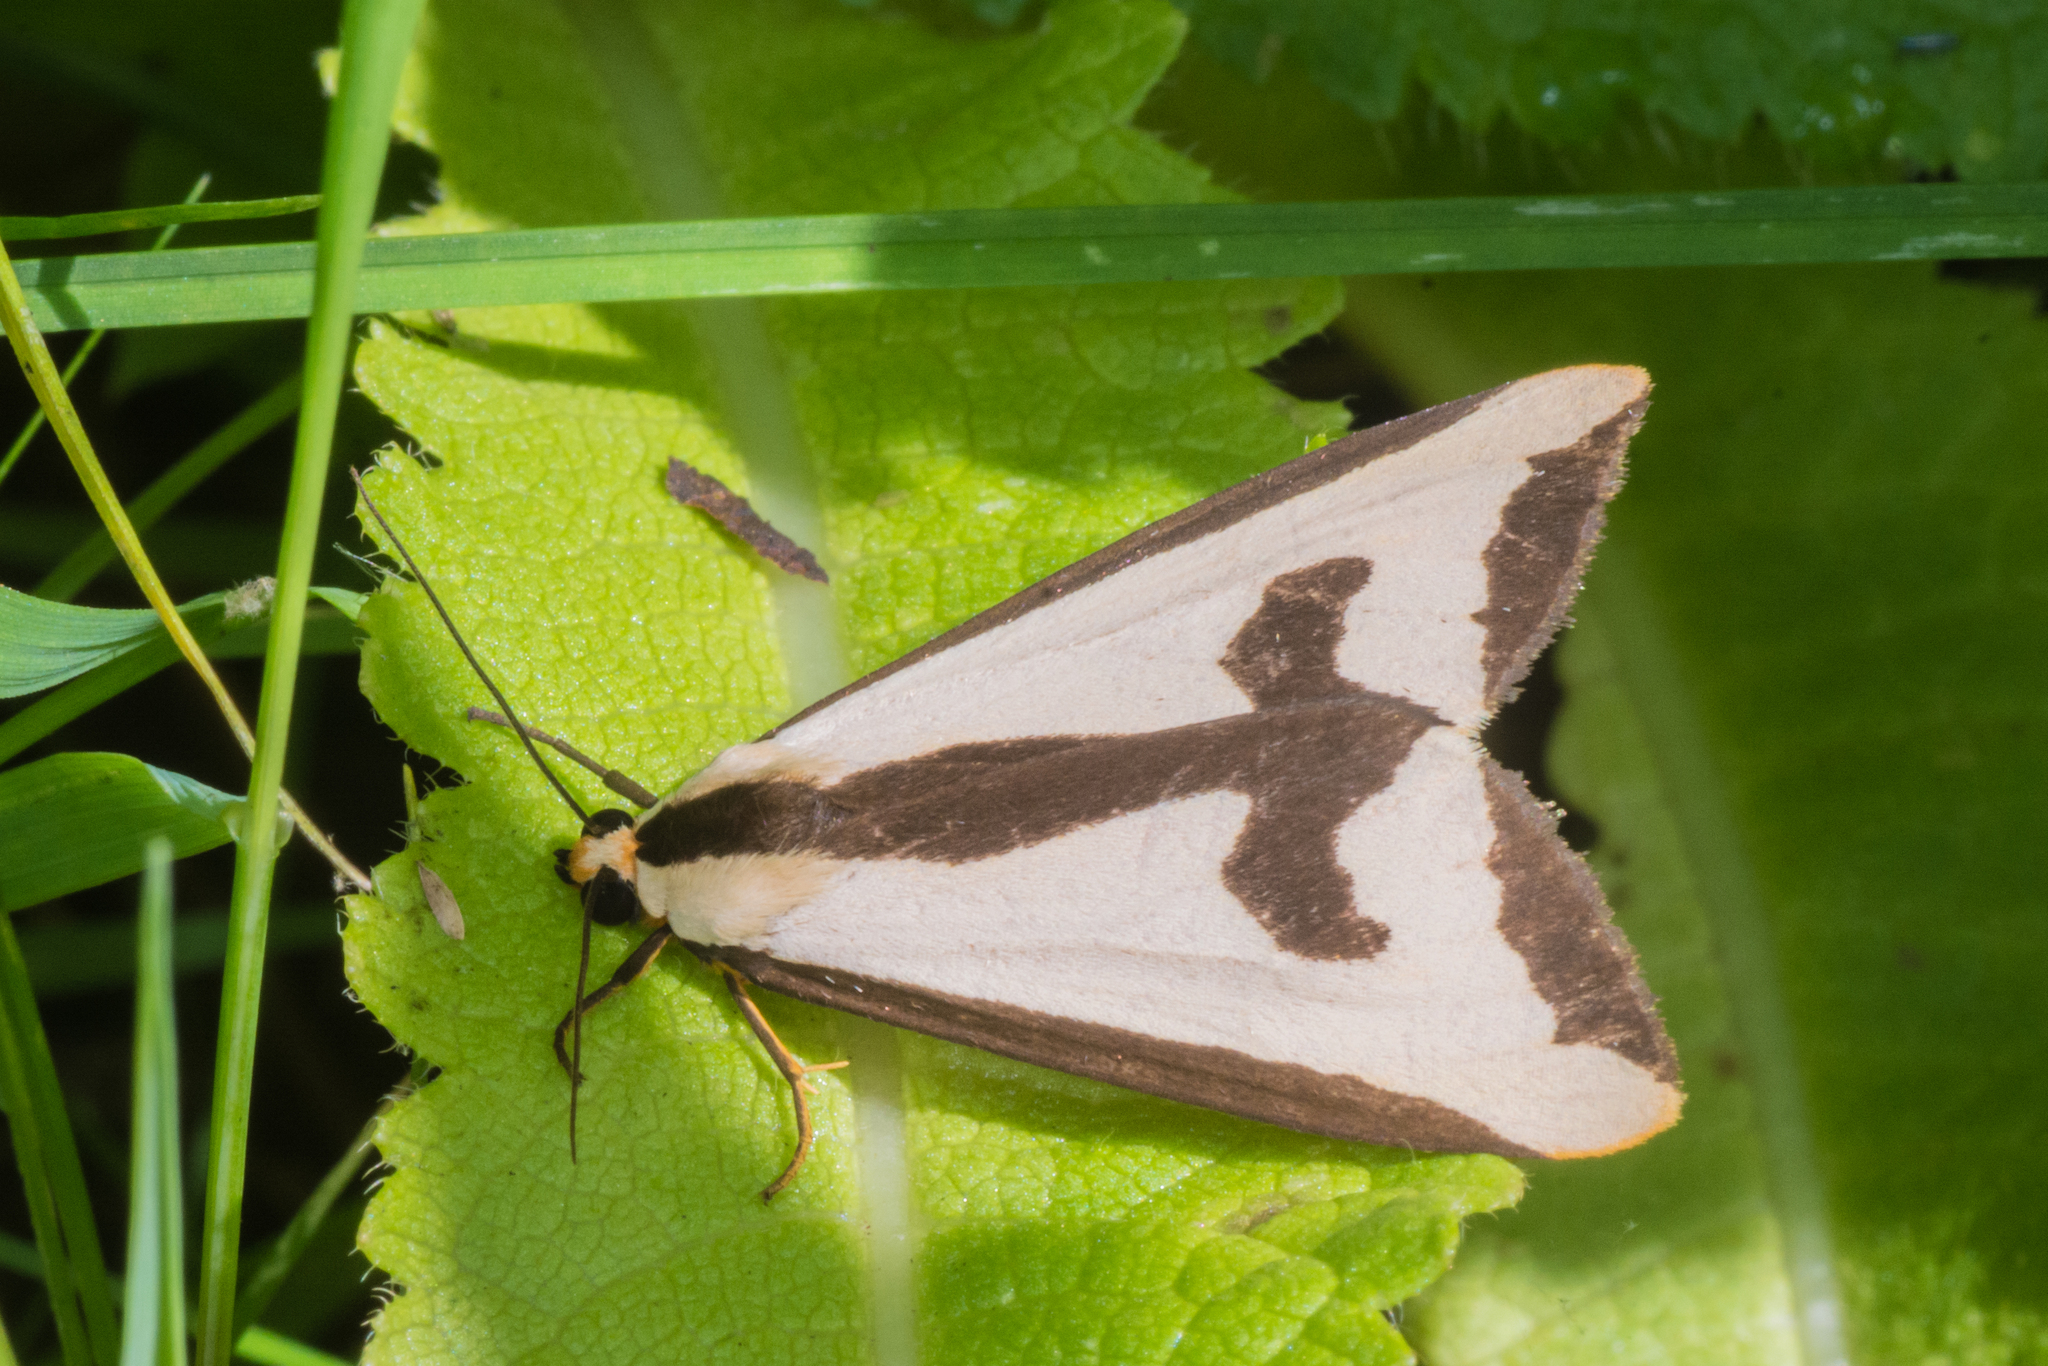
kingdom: Animalia
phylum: Arthropoda
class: Insecta
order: Lepidoptera
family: Erebidae
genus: Haploa
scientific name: Haploa clymene
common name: Clymene moth
